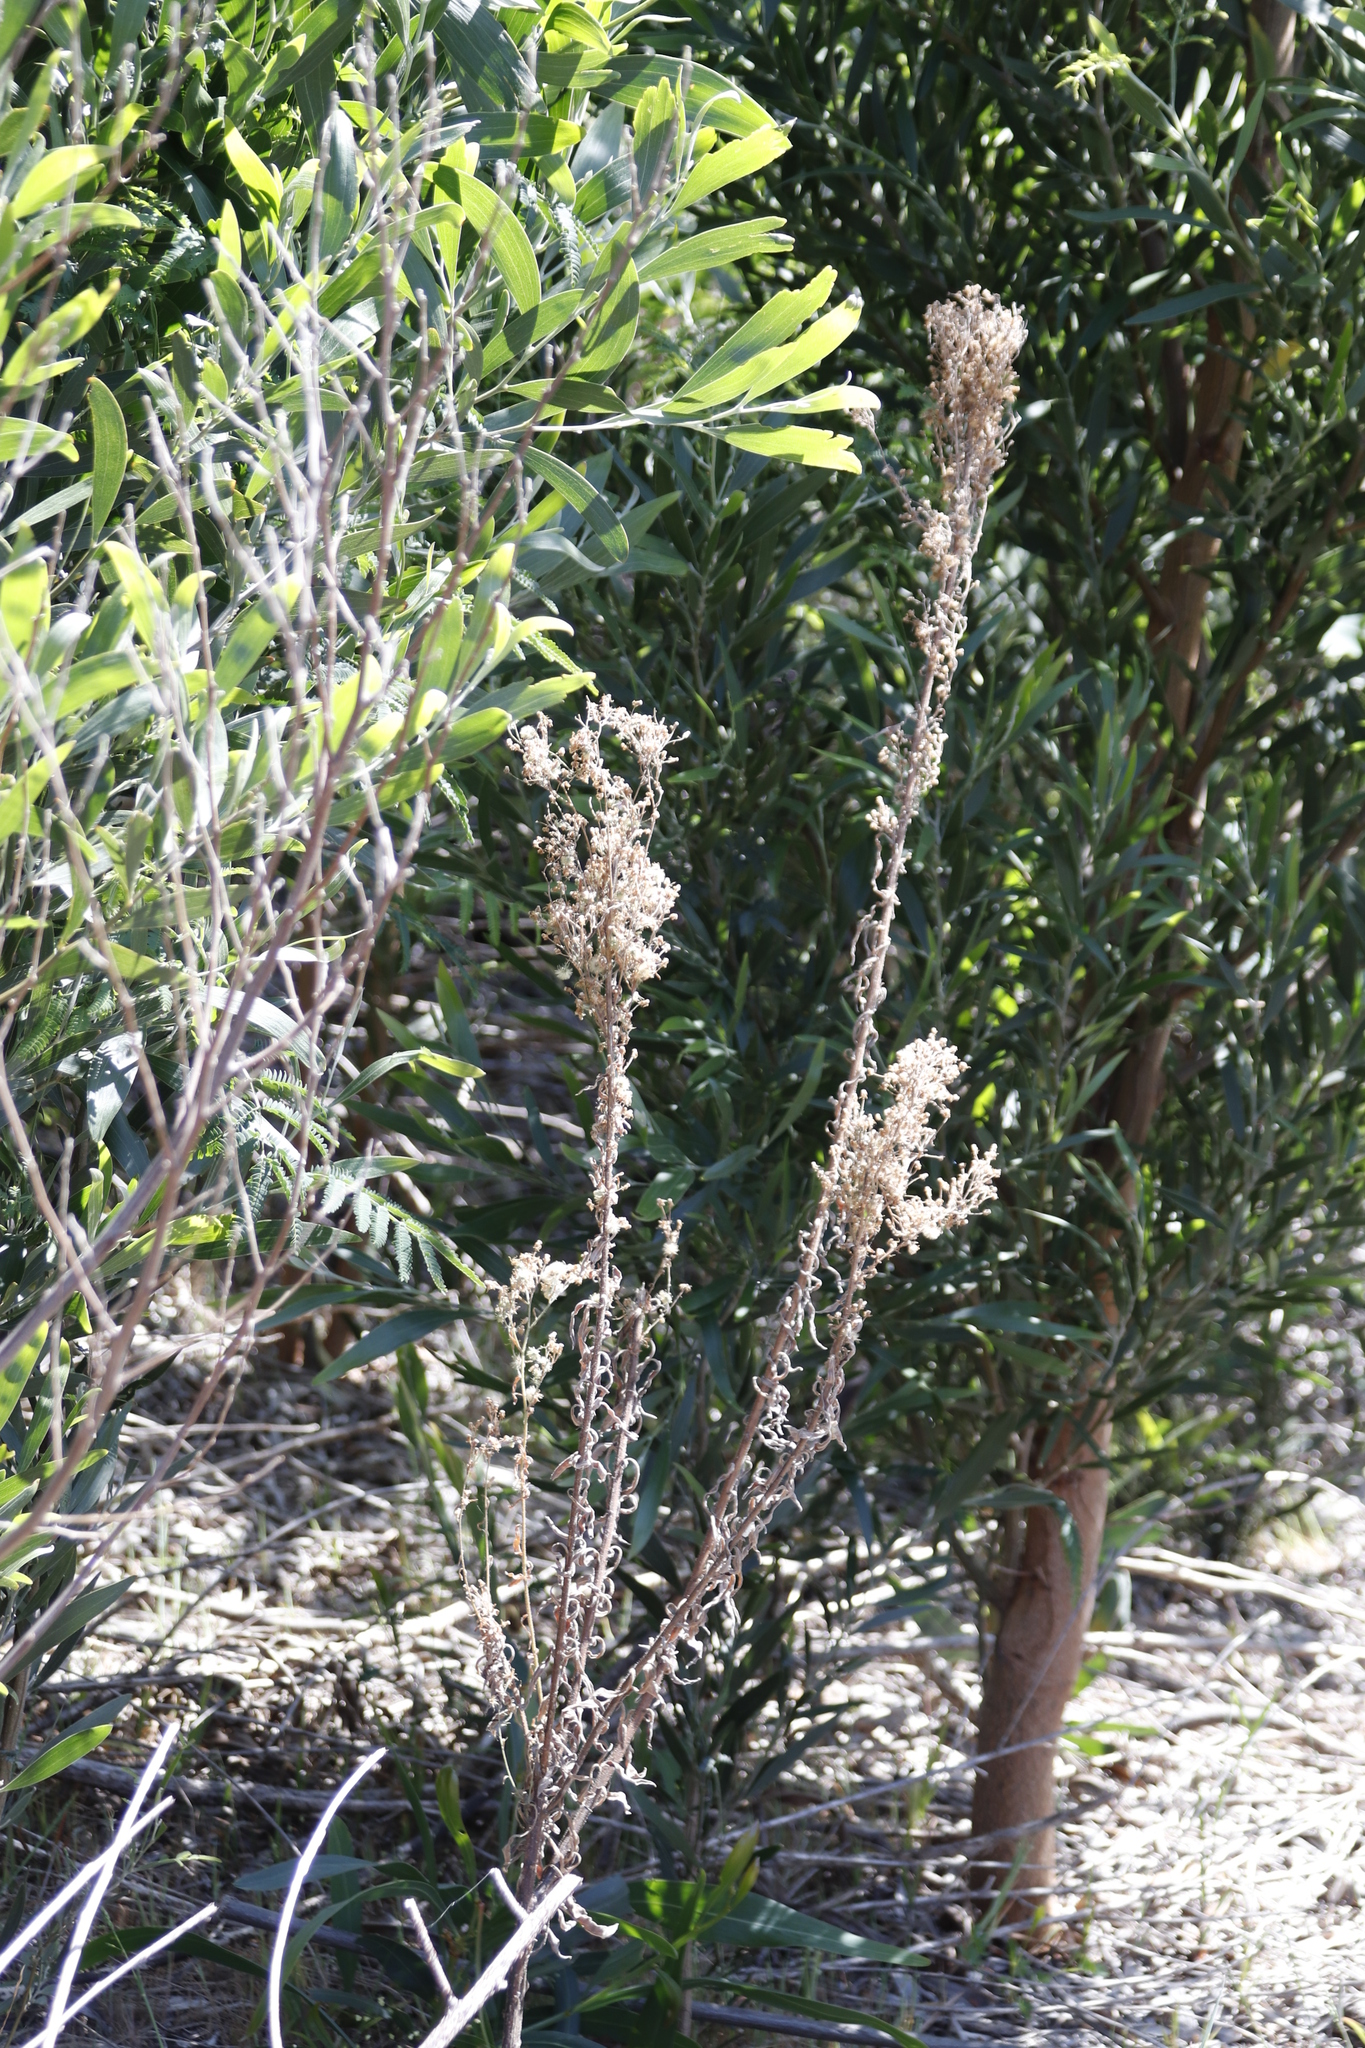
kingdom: Plantae
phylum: Tracheophyta
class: Magnoliopsida
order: Asterales
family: Asteraceae
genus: Erigeron
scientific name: Erigeron sumatrensis
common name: Daisy
